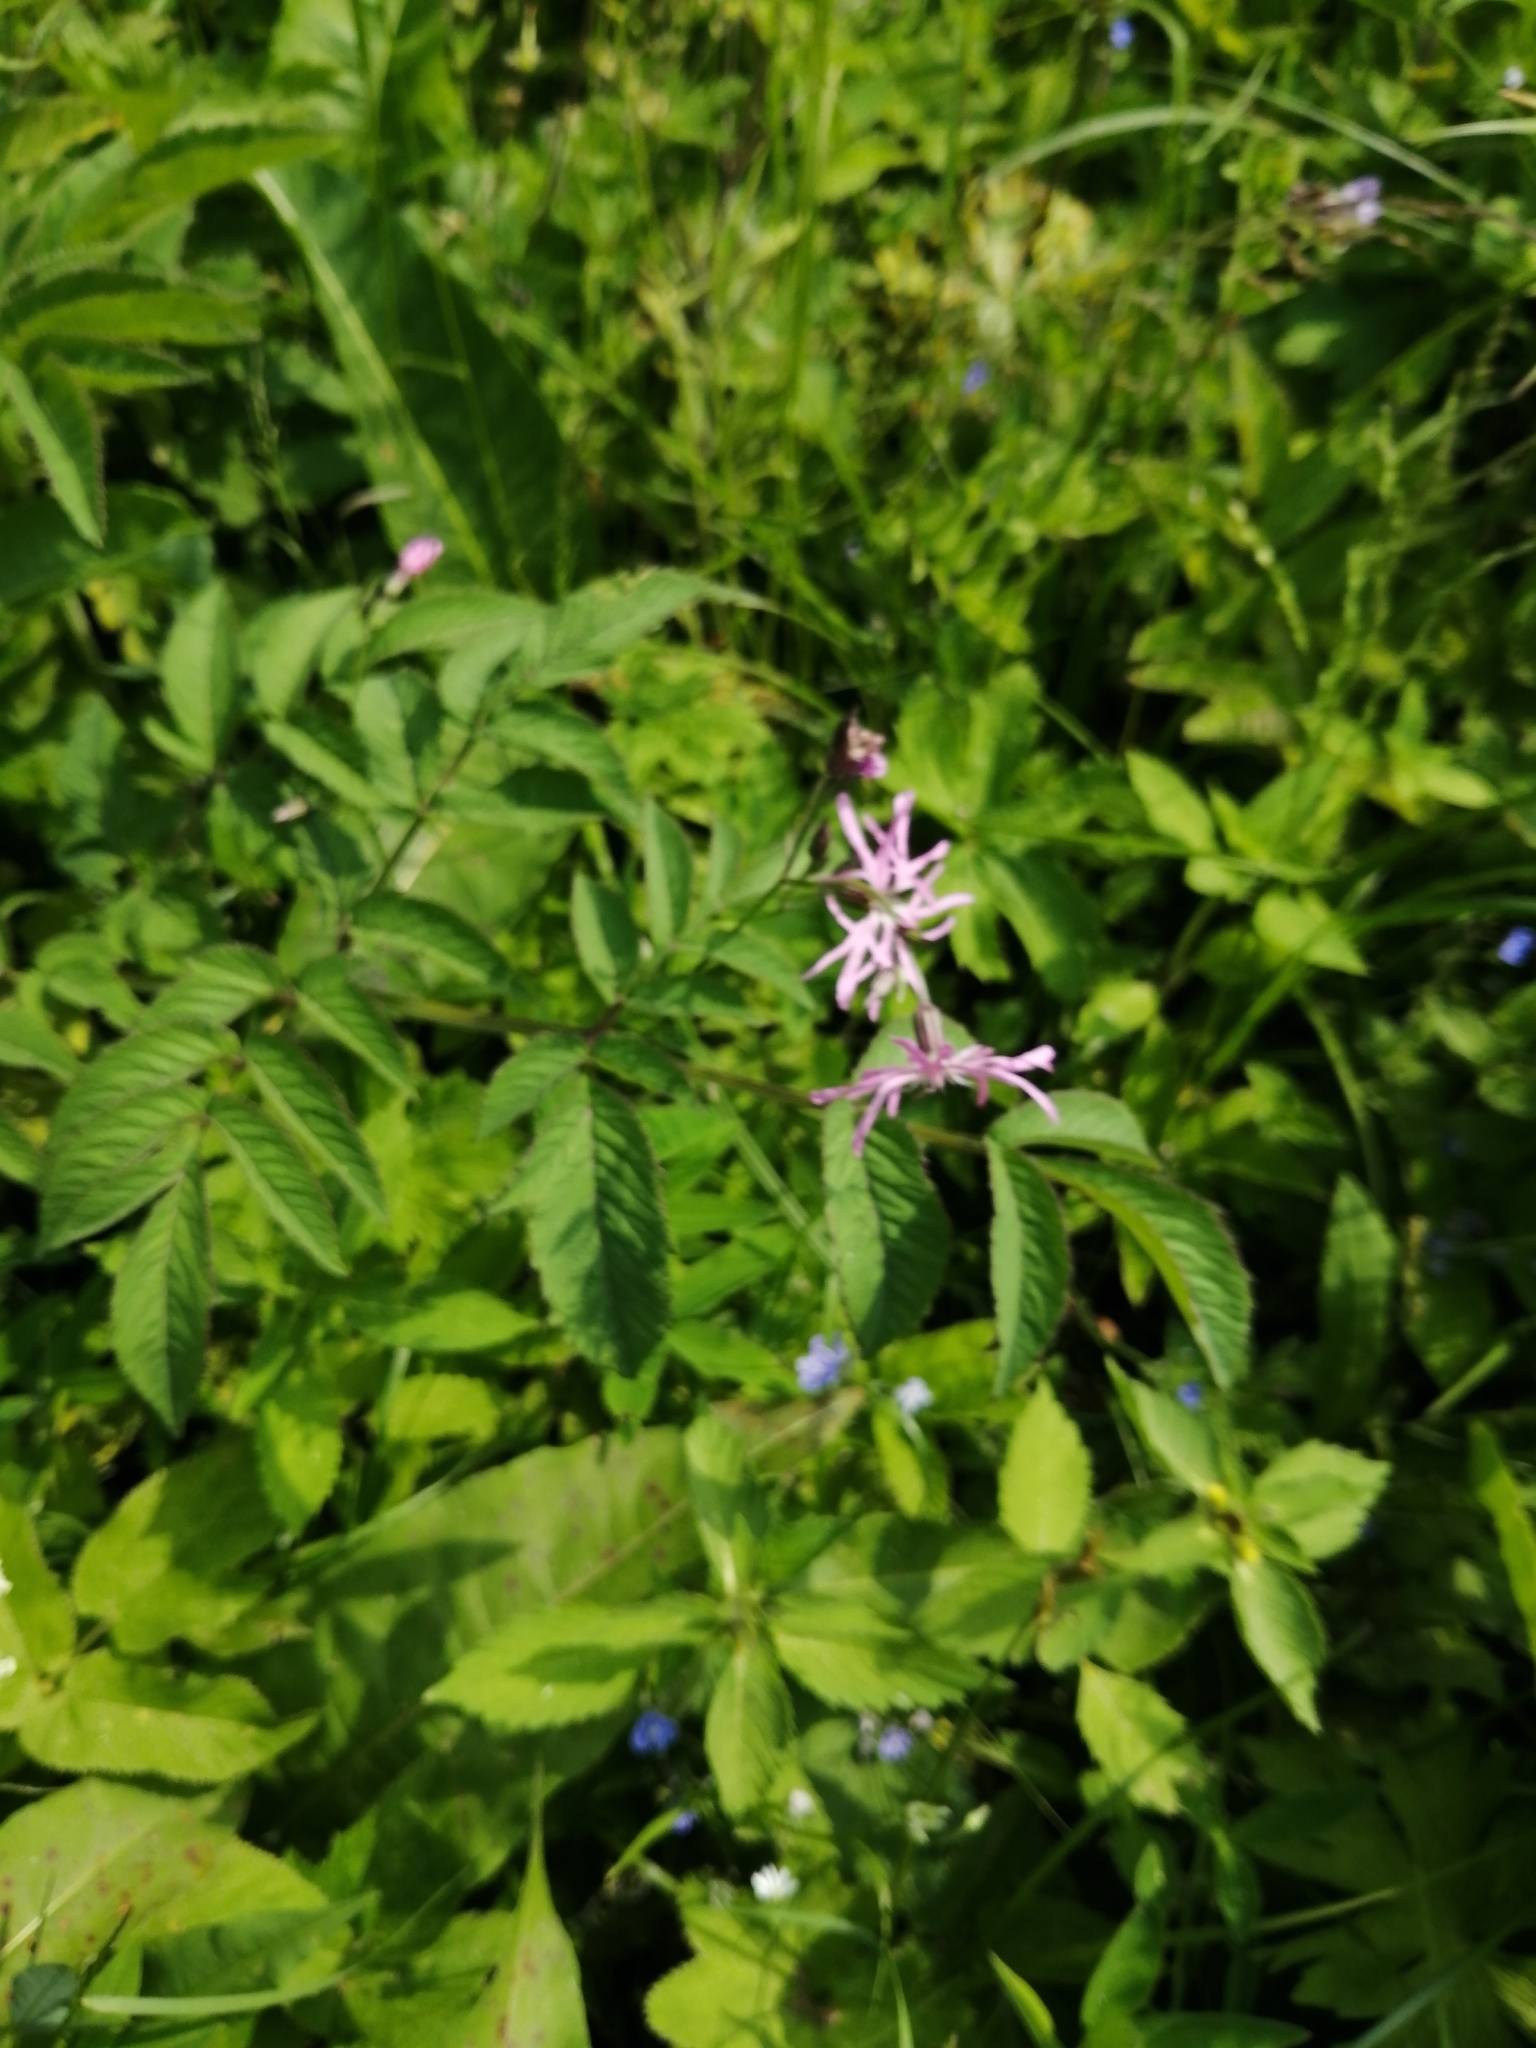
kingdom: Plantae
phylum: Tracheophyta
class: Magnoliopsida
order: Caryophyllales
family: Caryophyllaceae
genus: Silene
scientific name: Silene flos-cuculi
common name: Ragged-robin
